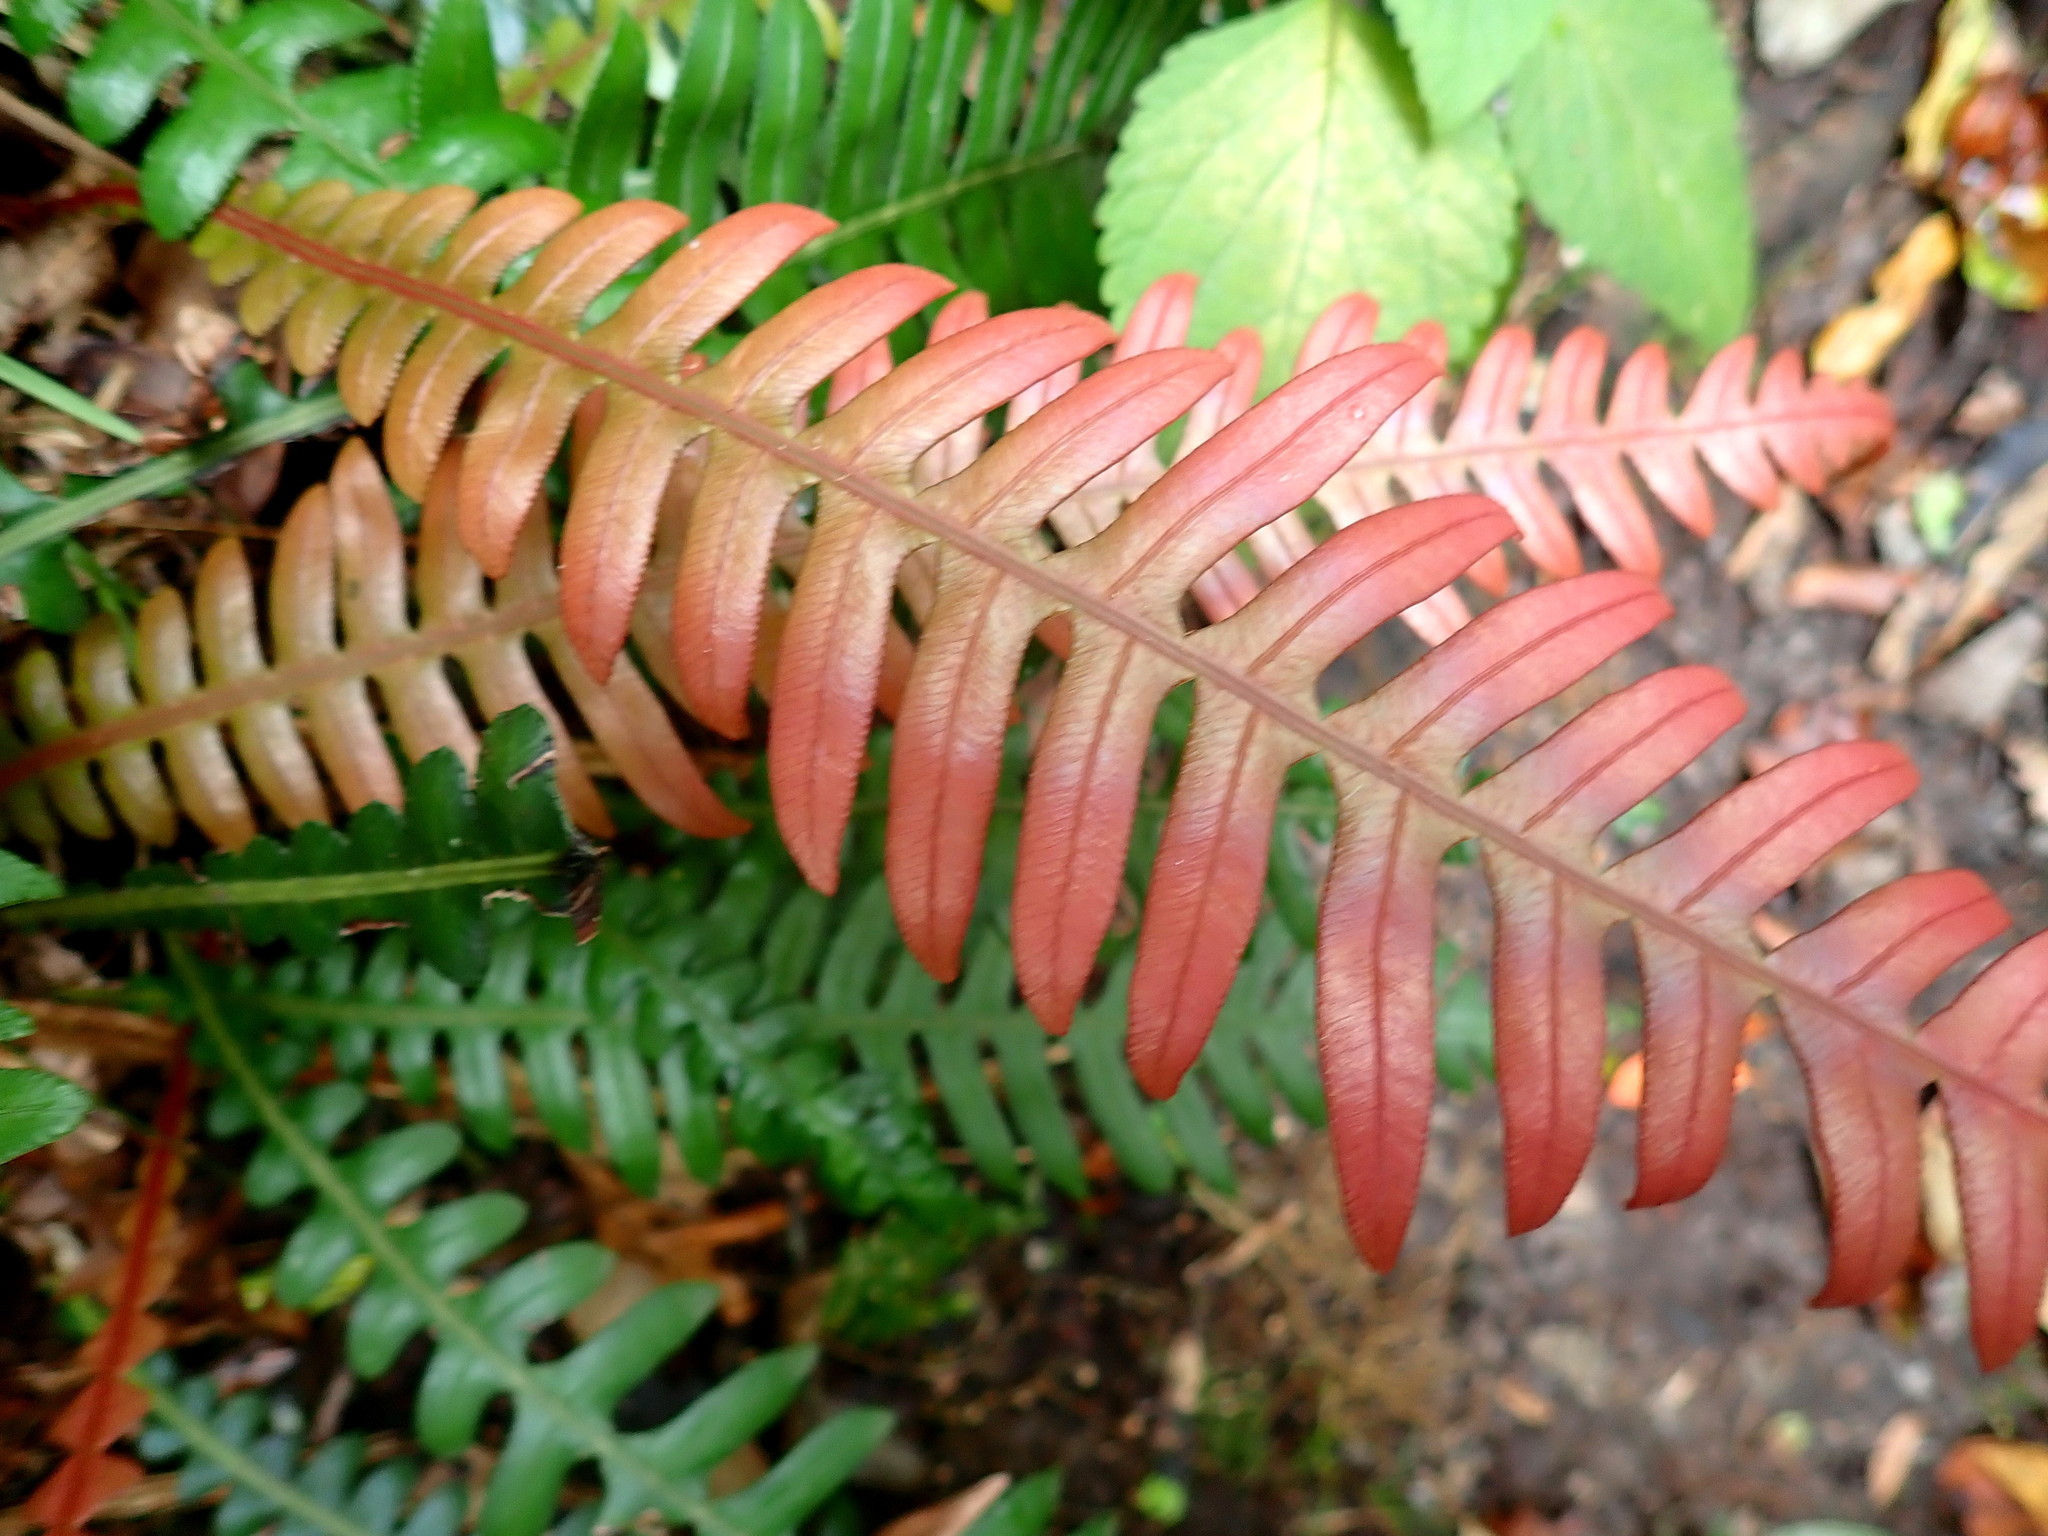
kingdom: Plantae
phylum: Tracheophyta
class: Polypodiopsida
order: Polypodiales
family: Blechnaceae
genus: Lomaridium
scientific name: Lomaridium attenuatum
